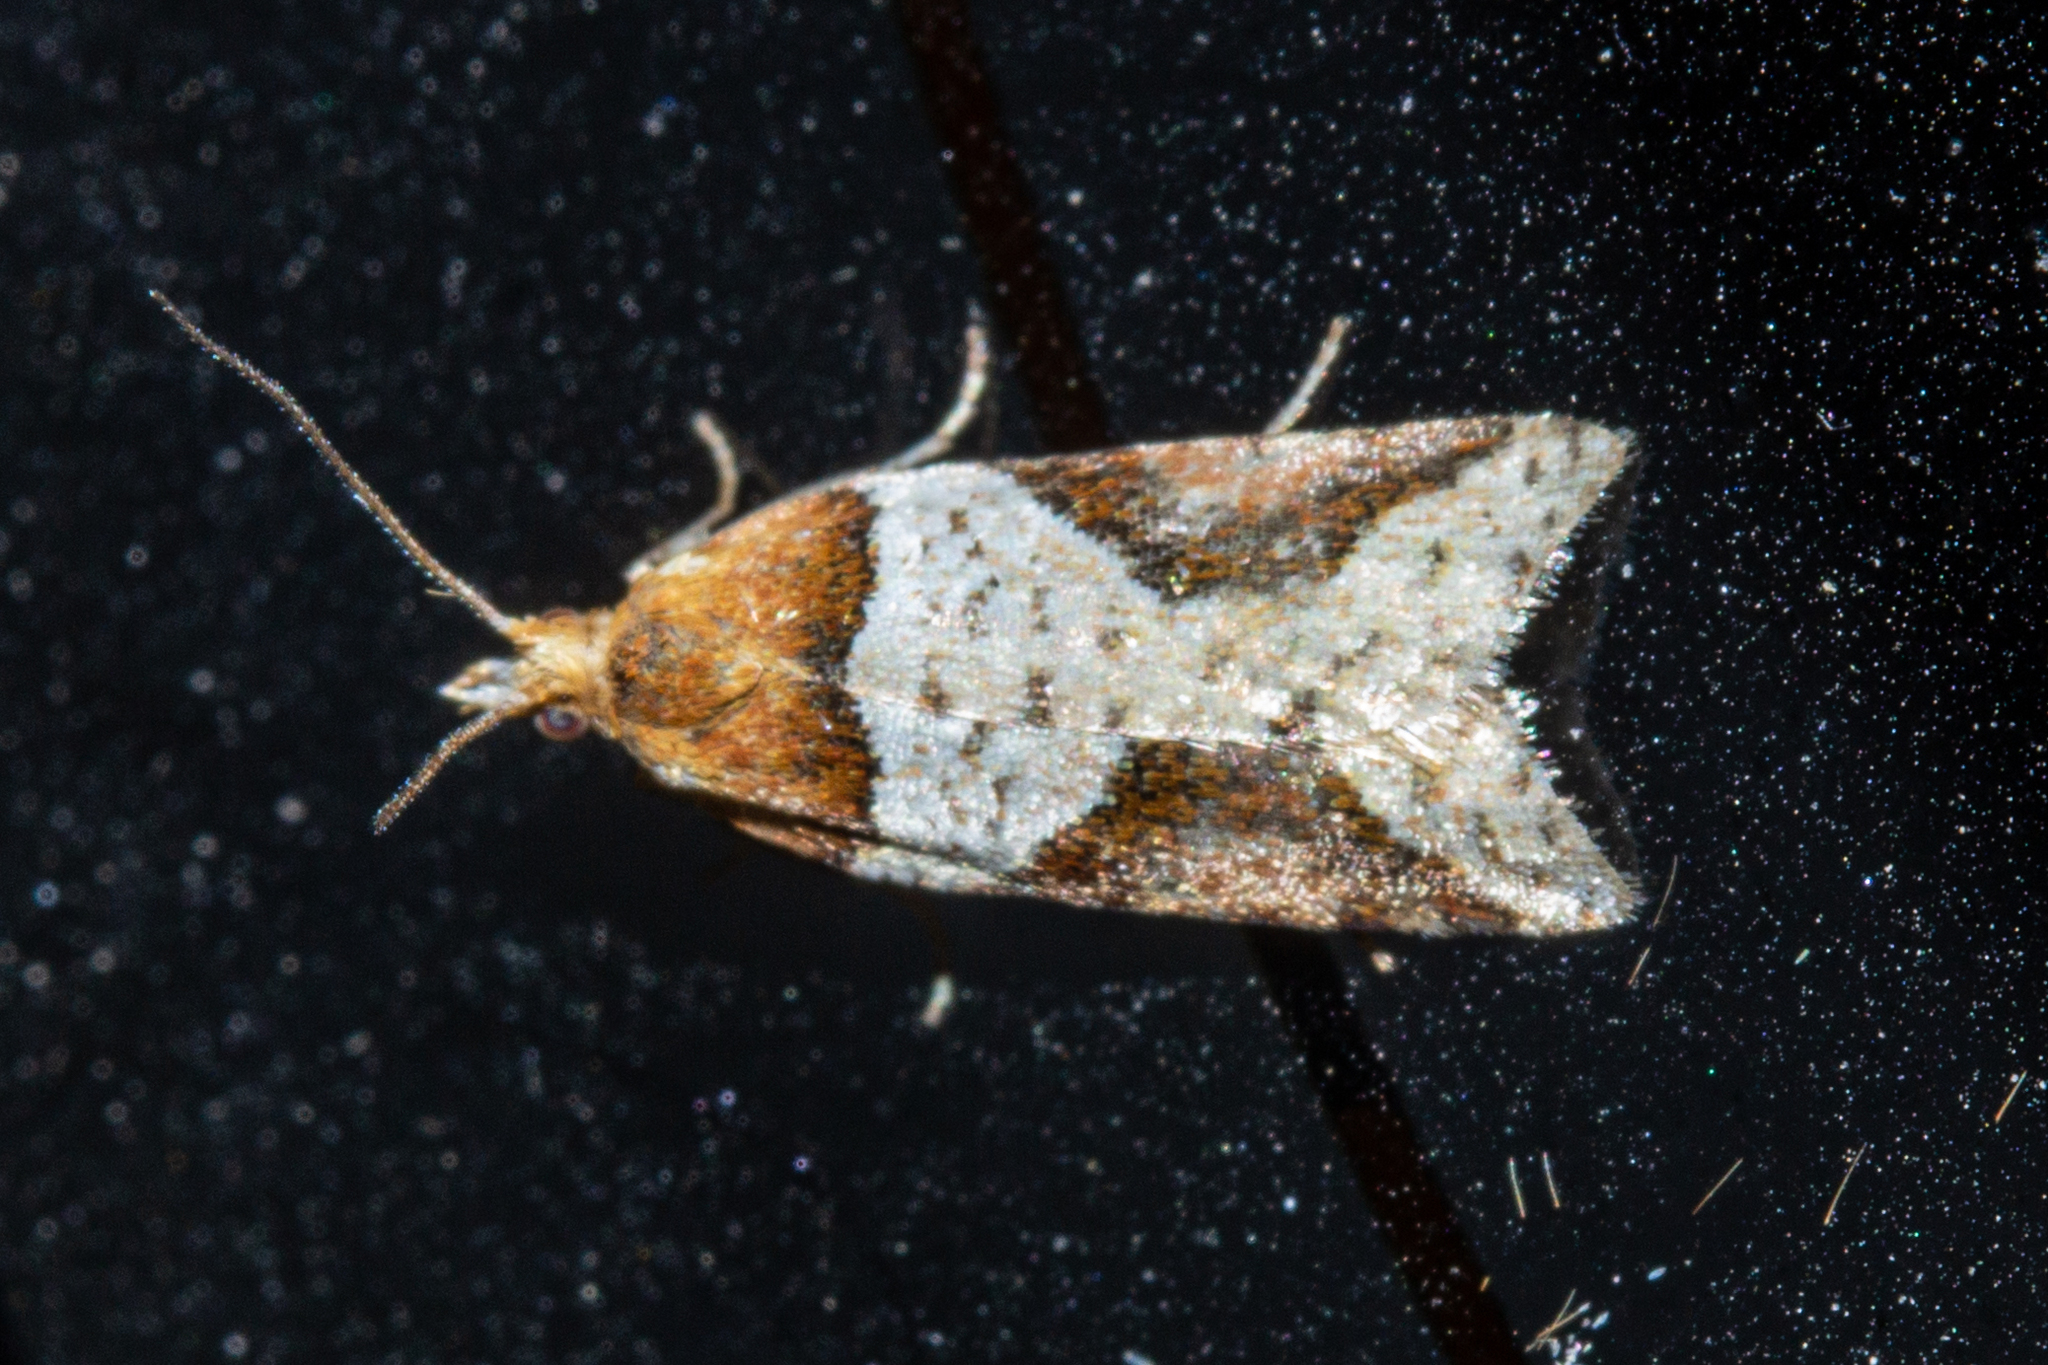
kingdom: Animalia
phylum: Arthropoda
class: Insecta
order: Lepidoptera
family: Tortricidae
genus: Epichorista
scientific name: Epichorista
